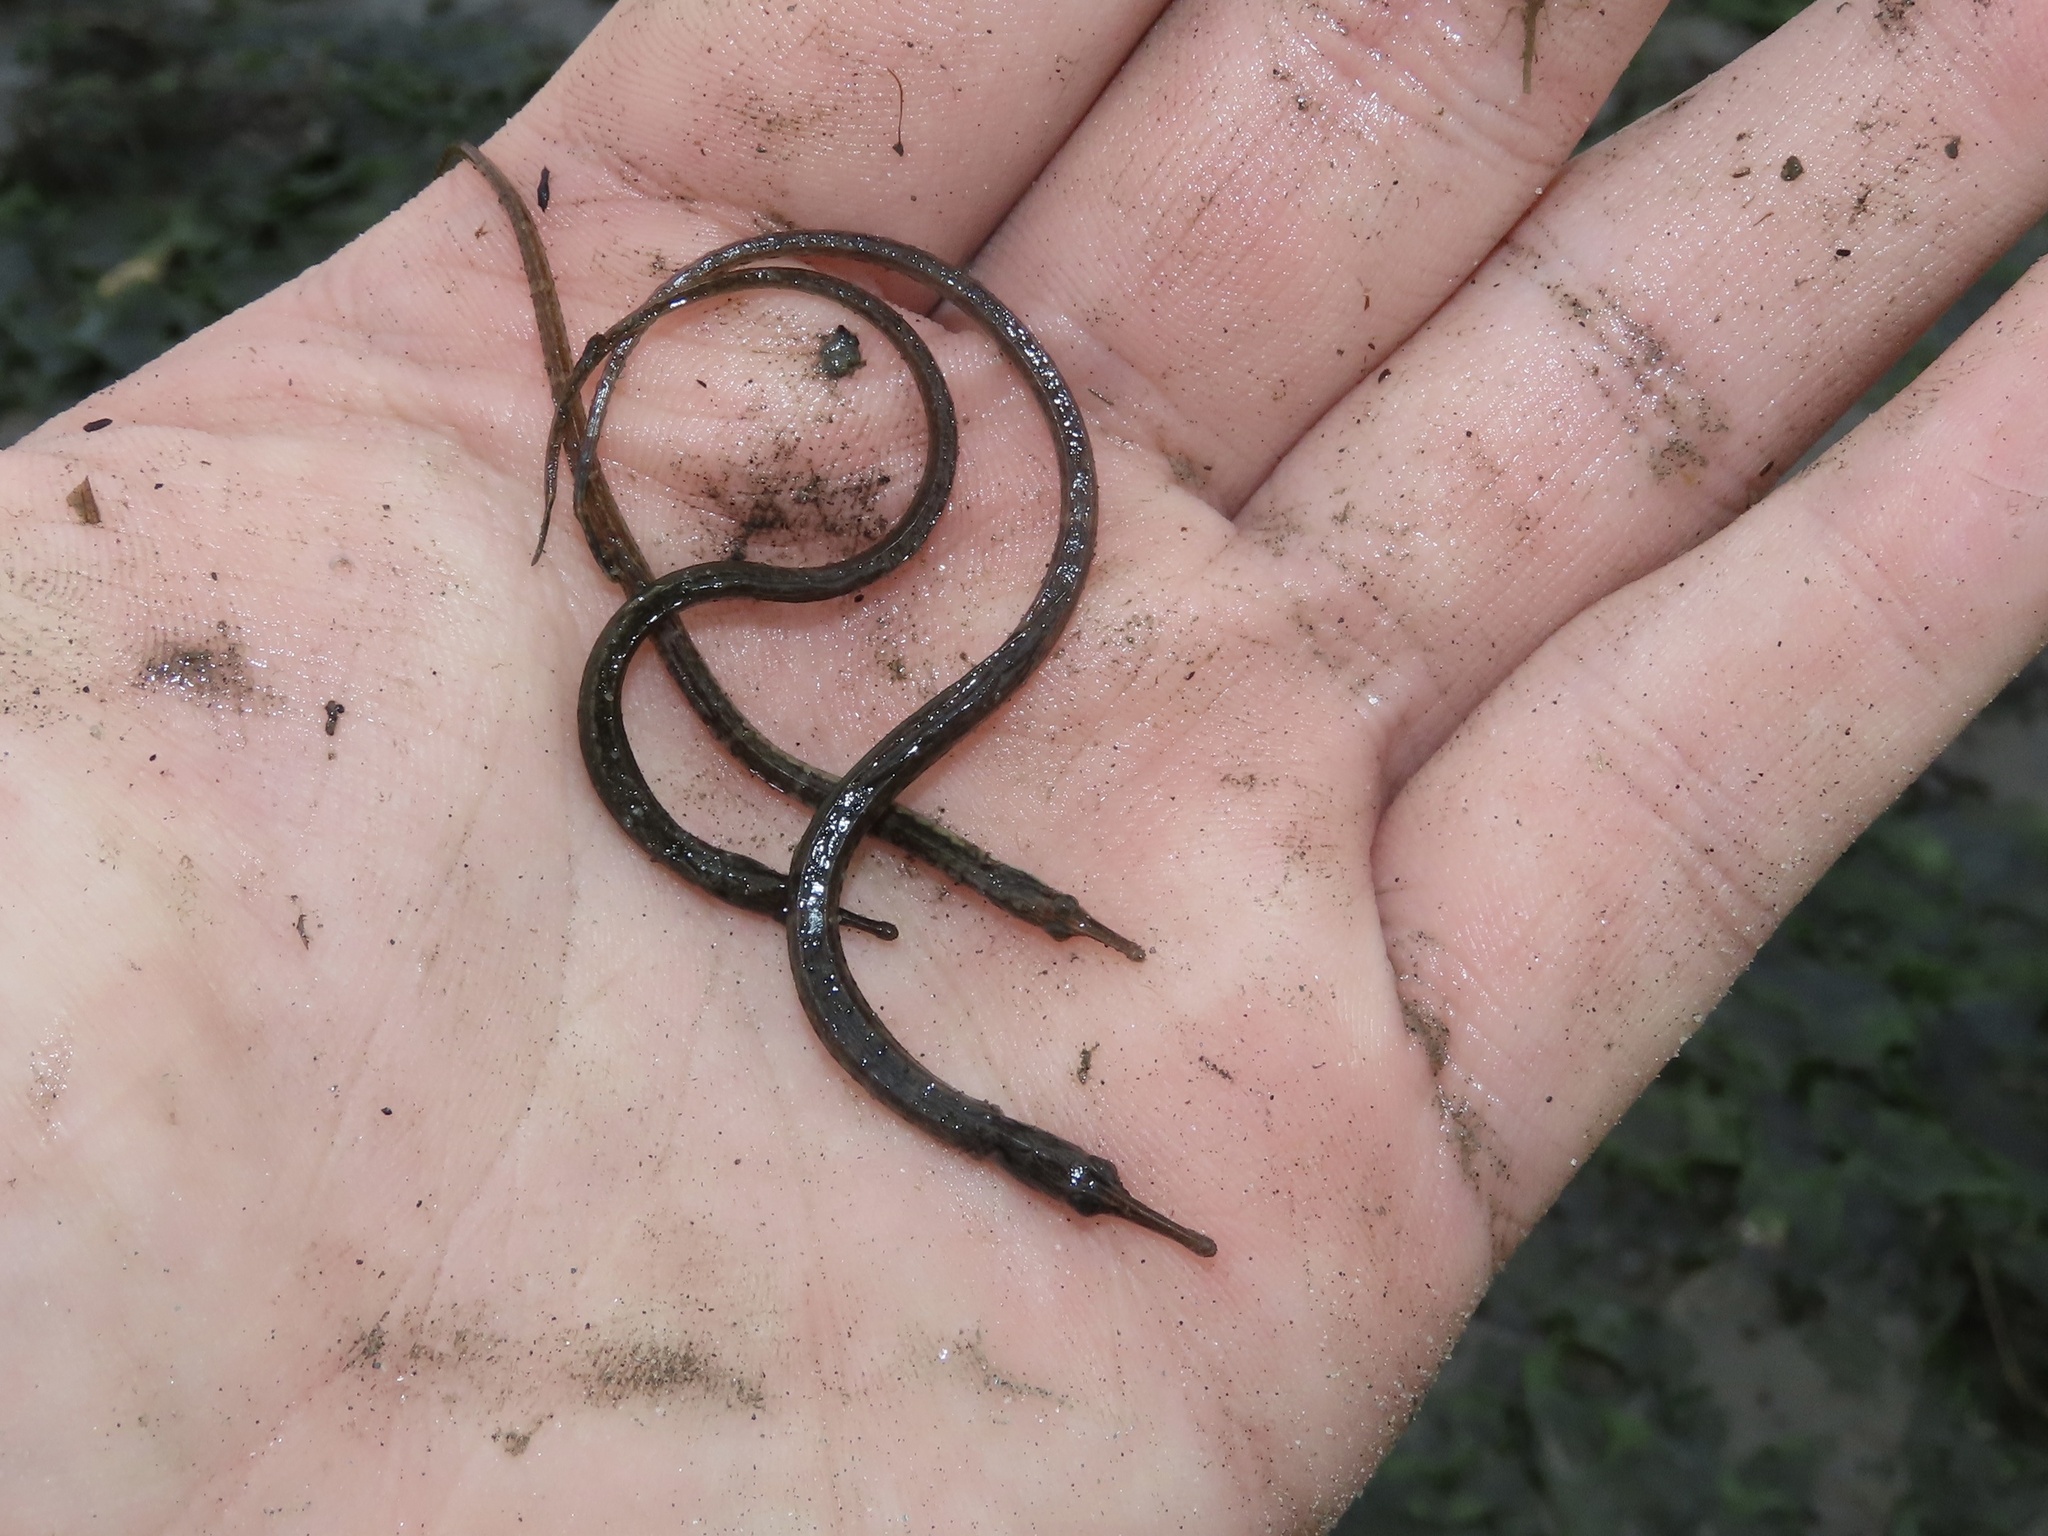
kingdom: Animalia
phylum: Chordata
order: Syngnathiformes
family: Syngnathidae
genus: Syngnathus
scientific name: Syngnathus fuscus
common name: Northern pipefish
